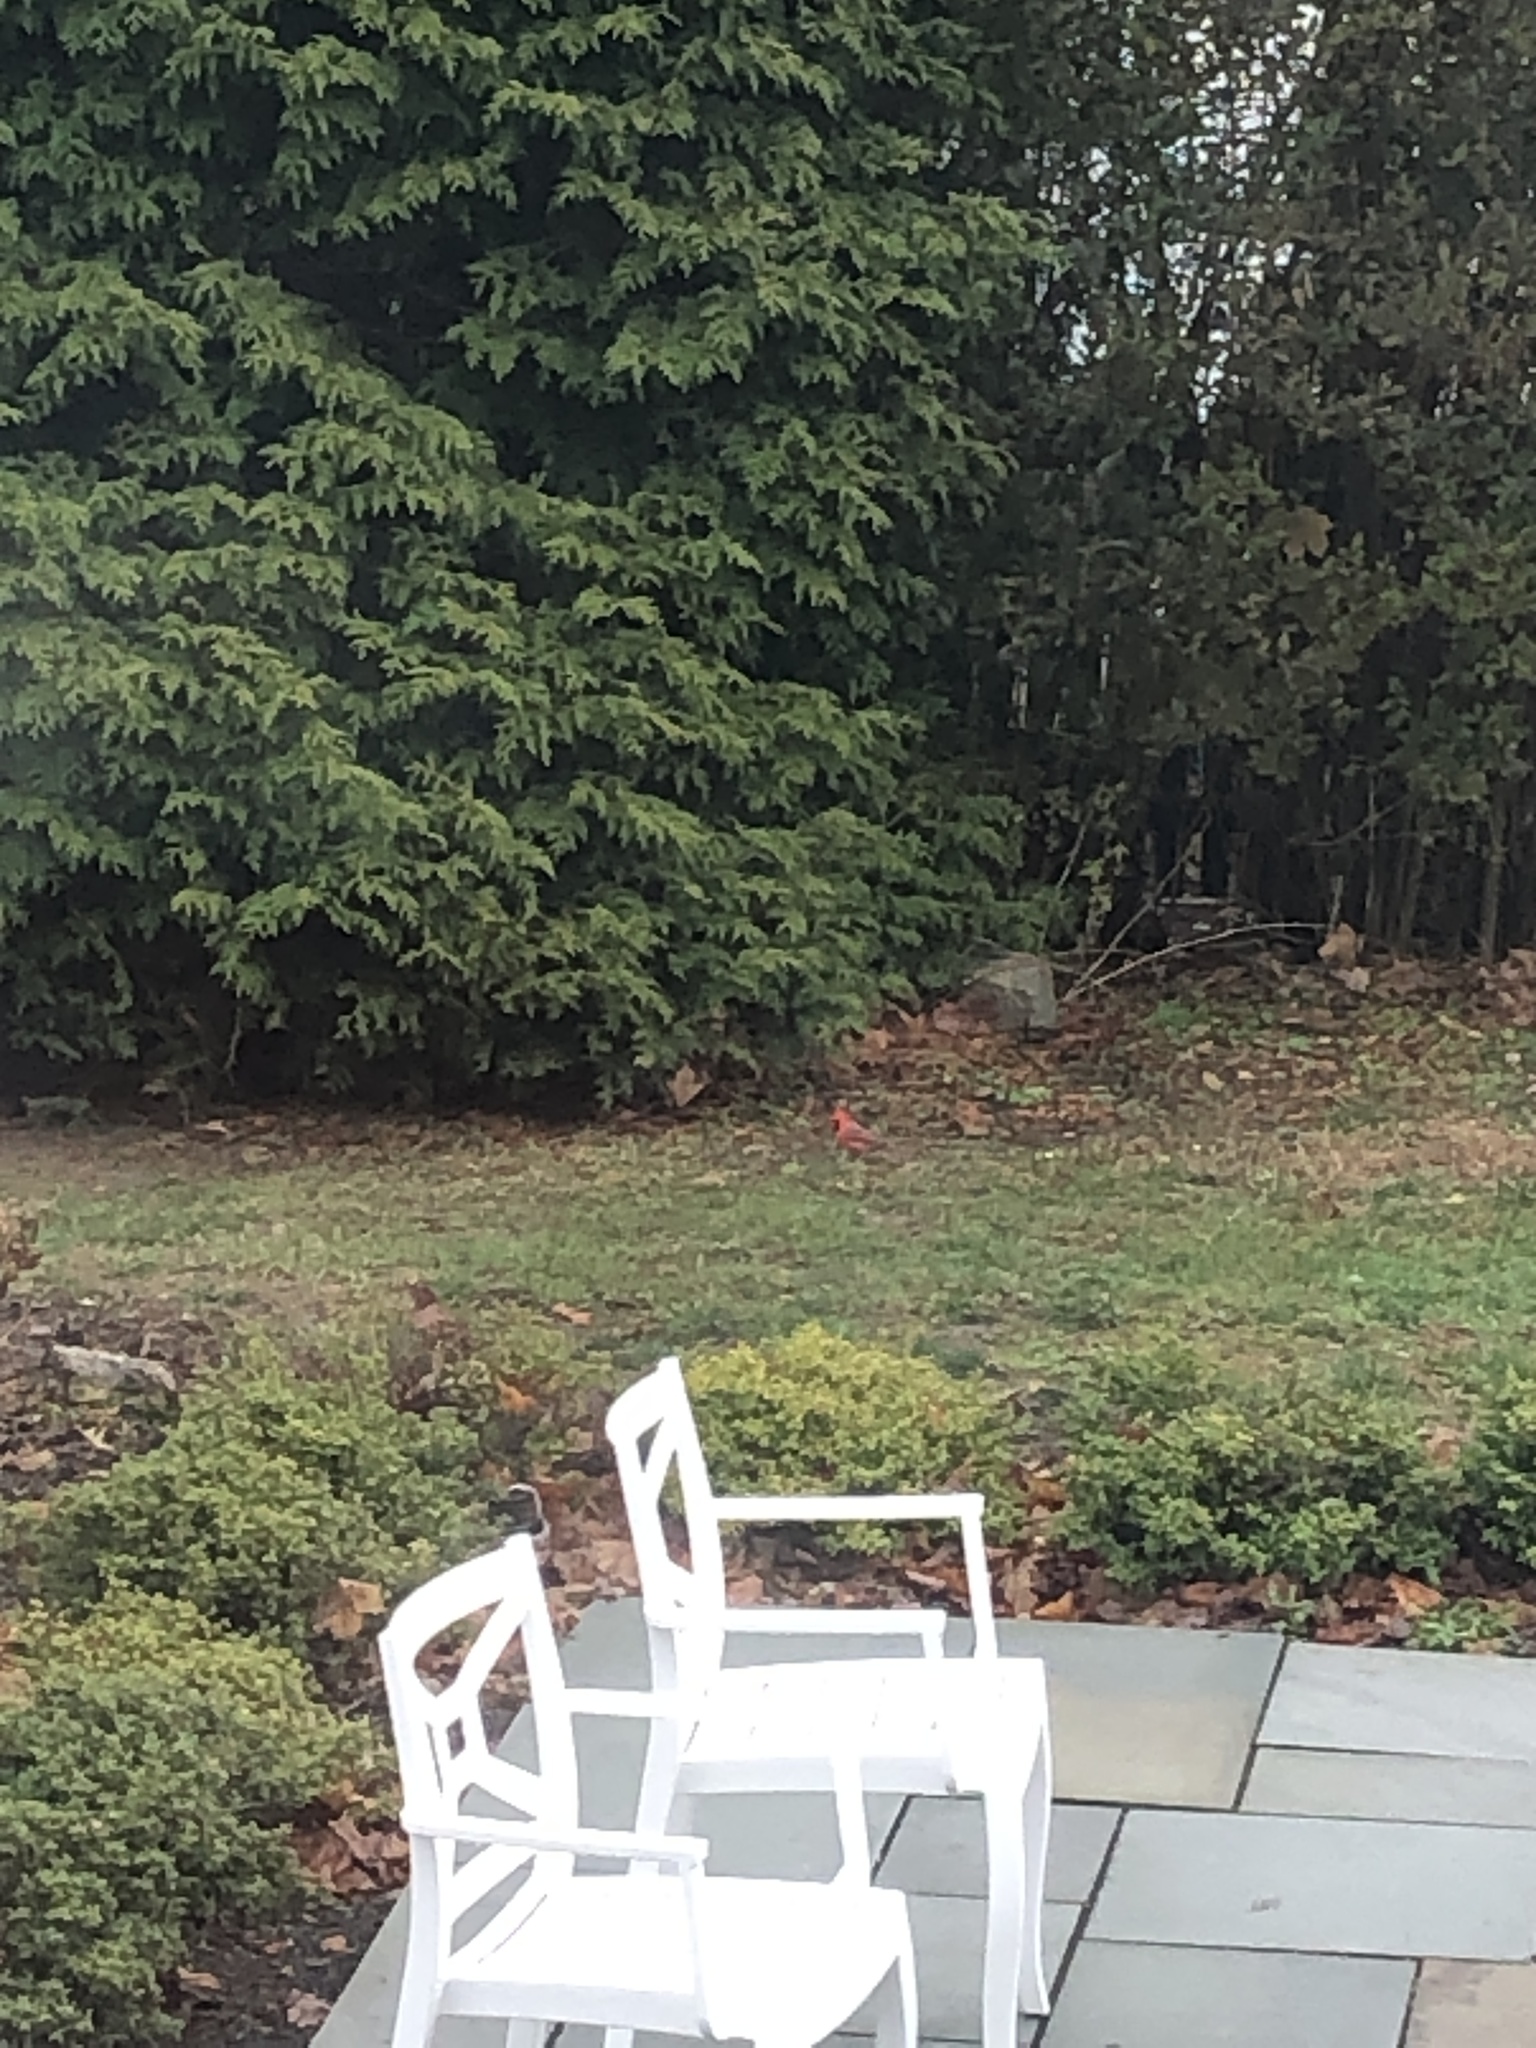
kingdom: Animalia
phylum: Chordata
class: Aves
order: Passeriformes
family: Cardinalidae
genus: Cardinalis
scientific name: Cardinalis cardinalis
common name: Northern cardinal
